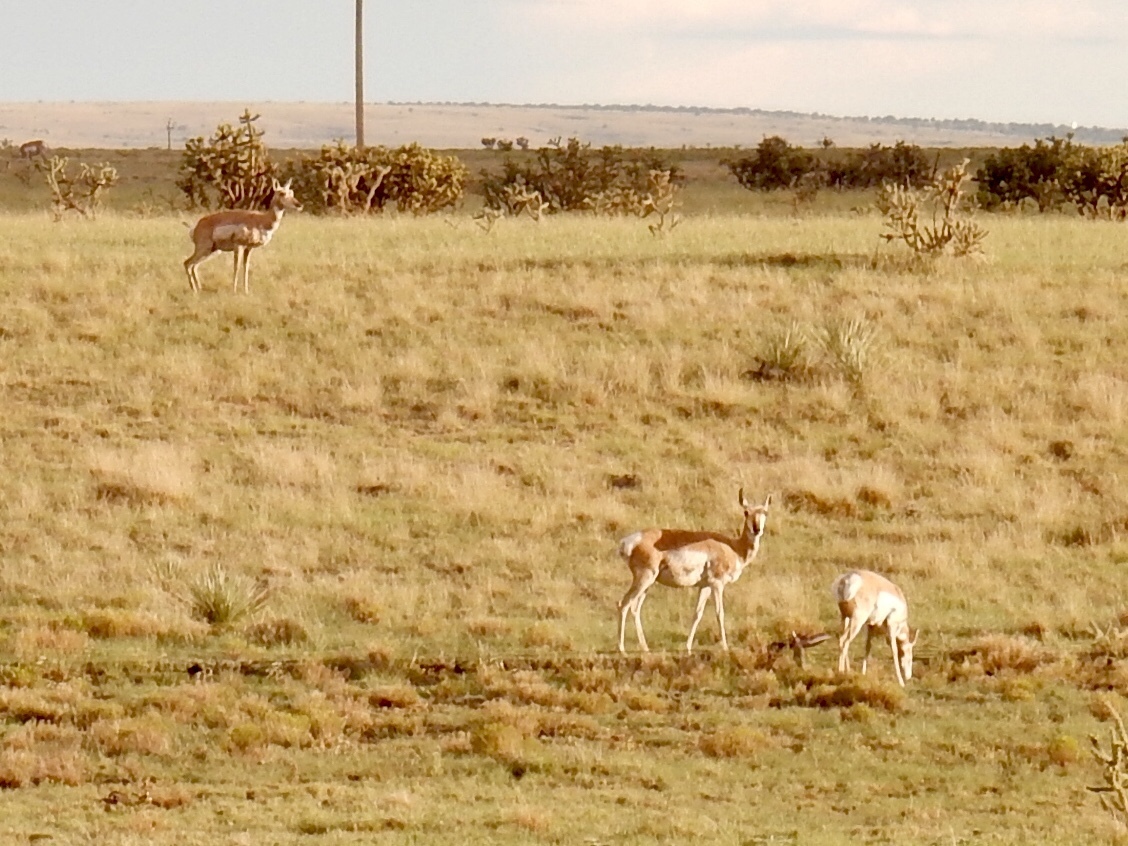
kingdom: Animalia
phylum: Chordata
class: Mammalia
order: Artiodactyla
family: Antilocapridae
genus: Antilocapra
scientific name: Antilocapra americana
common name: Pronghorn
